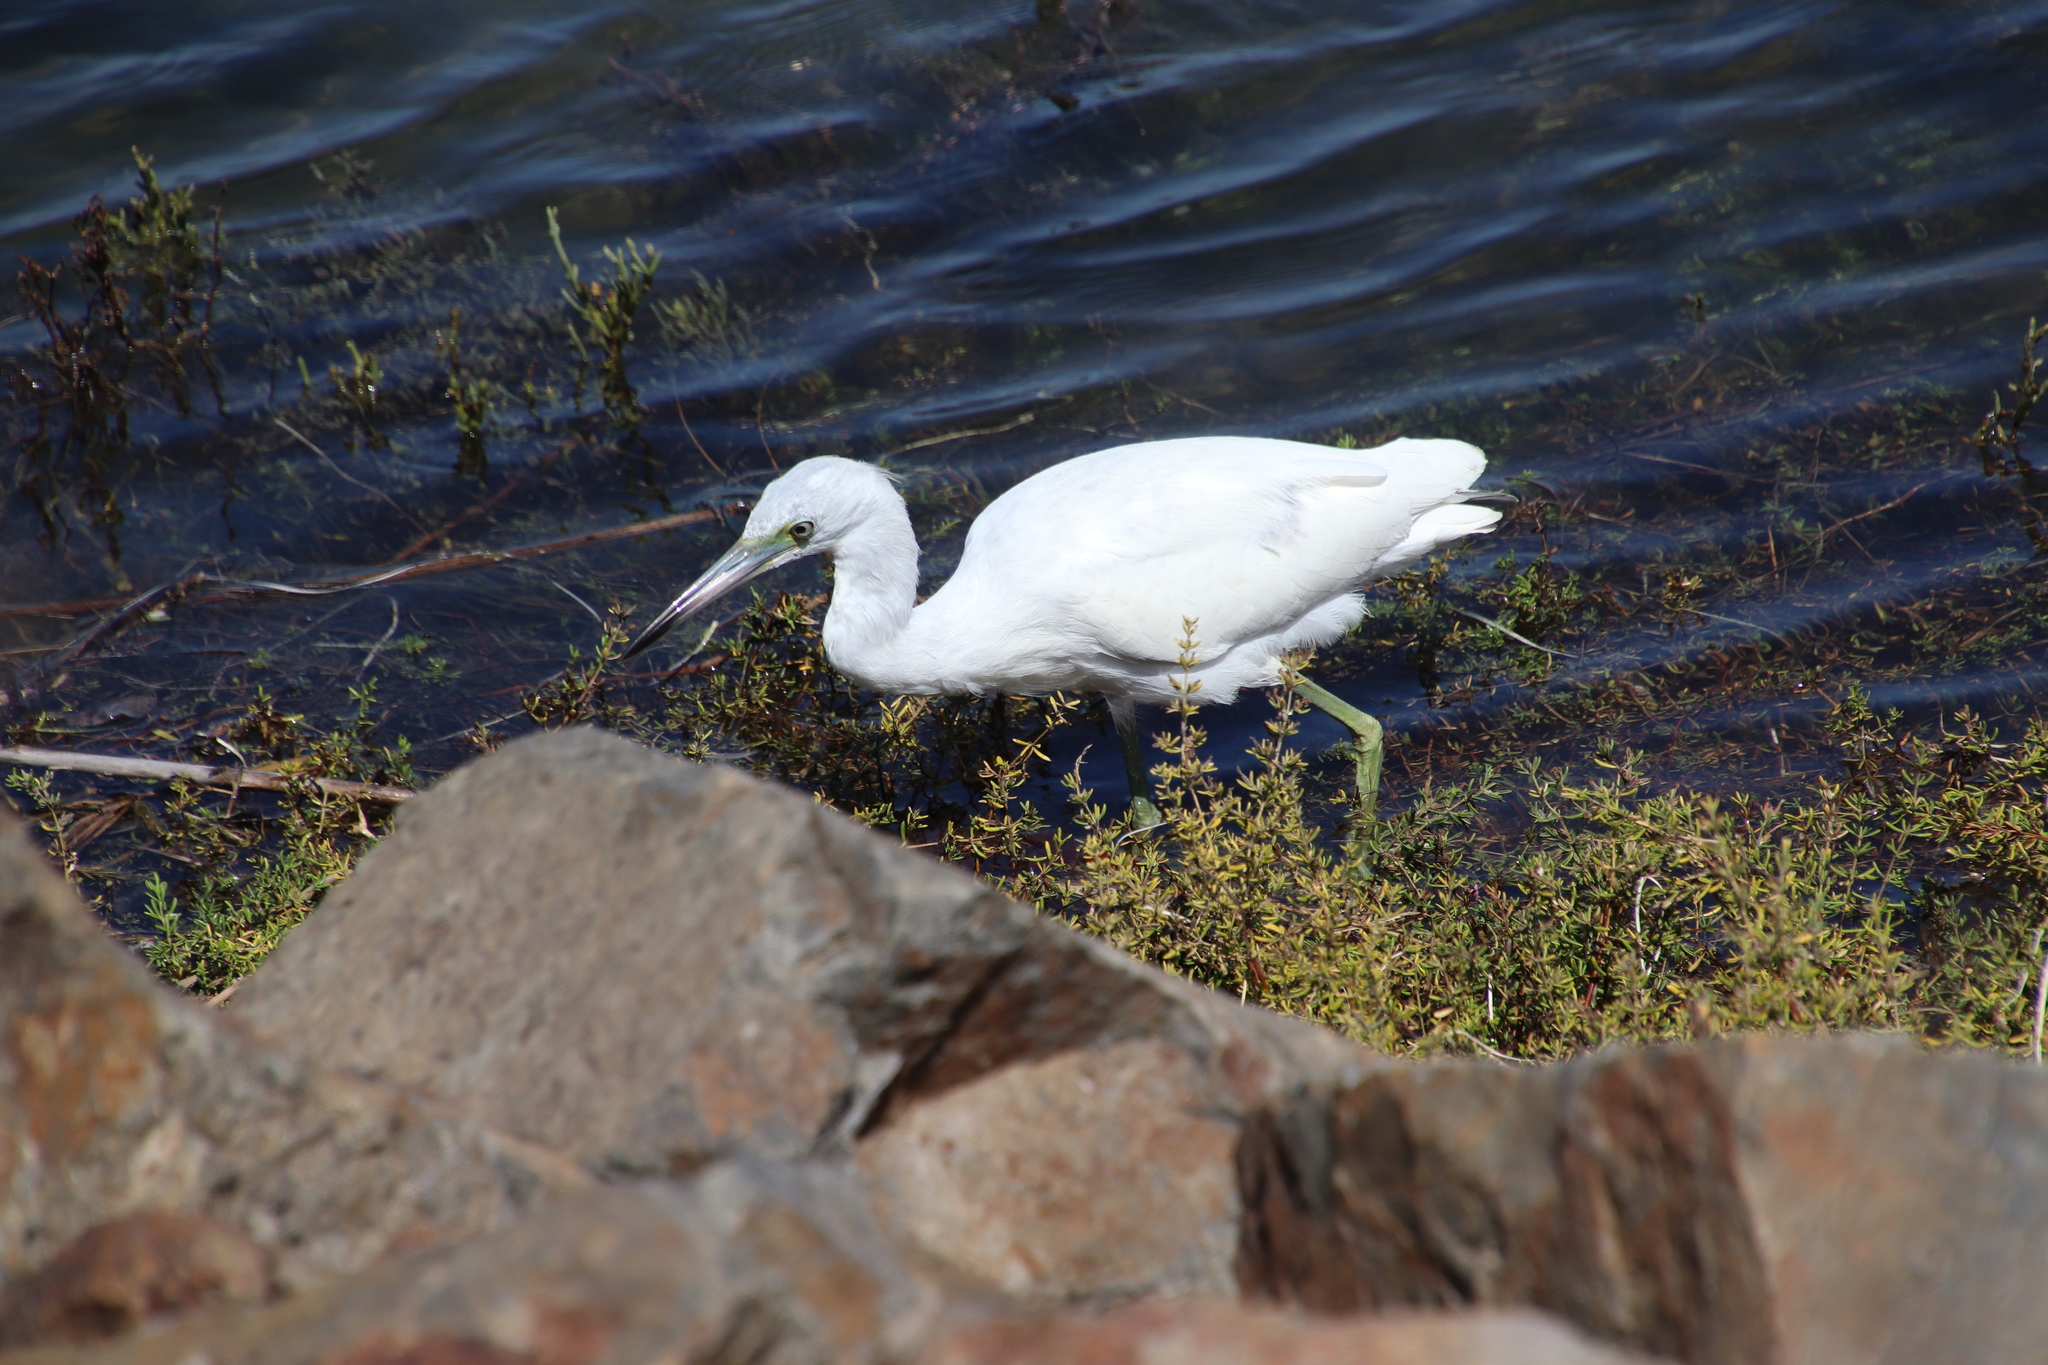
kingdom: Animalia
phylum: Chordata
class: Aves
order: Pelecaniformes
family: Ardeidae
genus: Egretta
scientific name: Egretta caerulea
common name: Little blue heron
